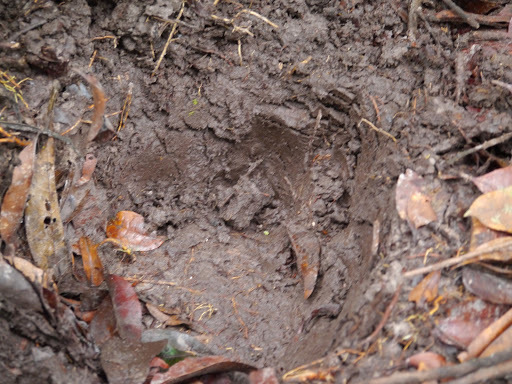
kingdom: Animalia
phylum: Chordata
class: Mammalia
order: Proboscidea
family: Elephantidae
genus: Loxodonta
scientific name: Loxodonta cyclotis
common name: African forest elephant
